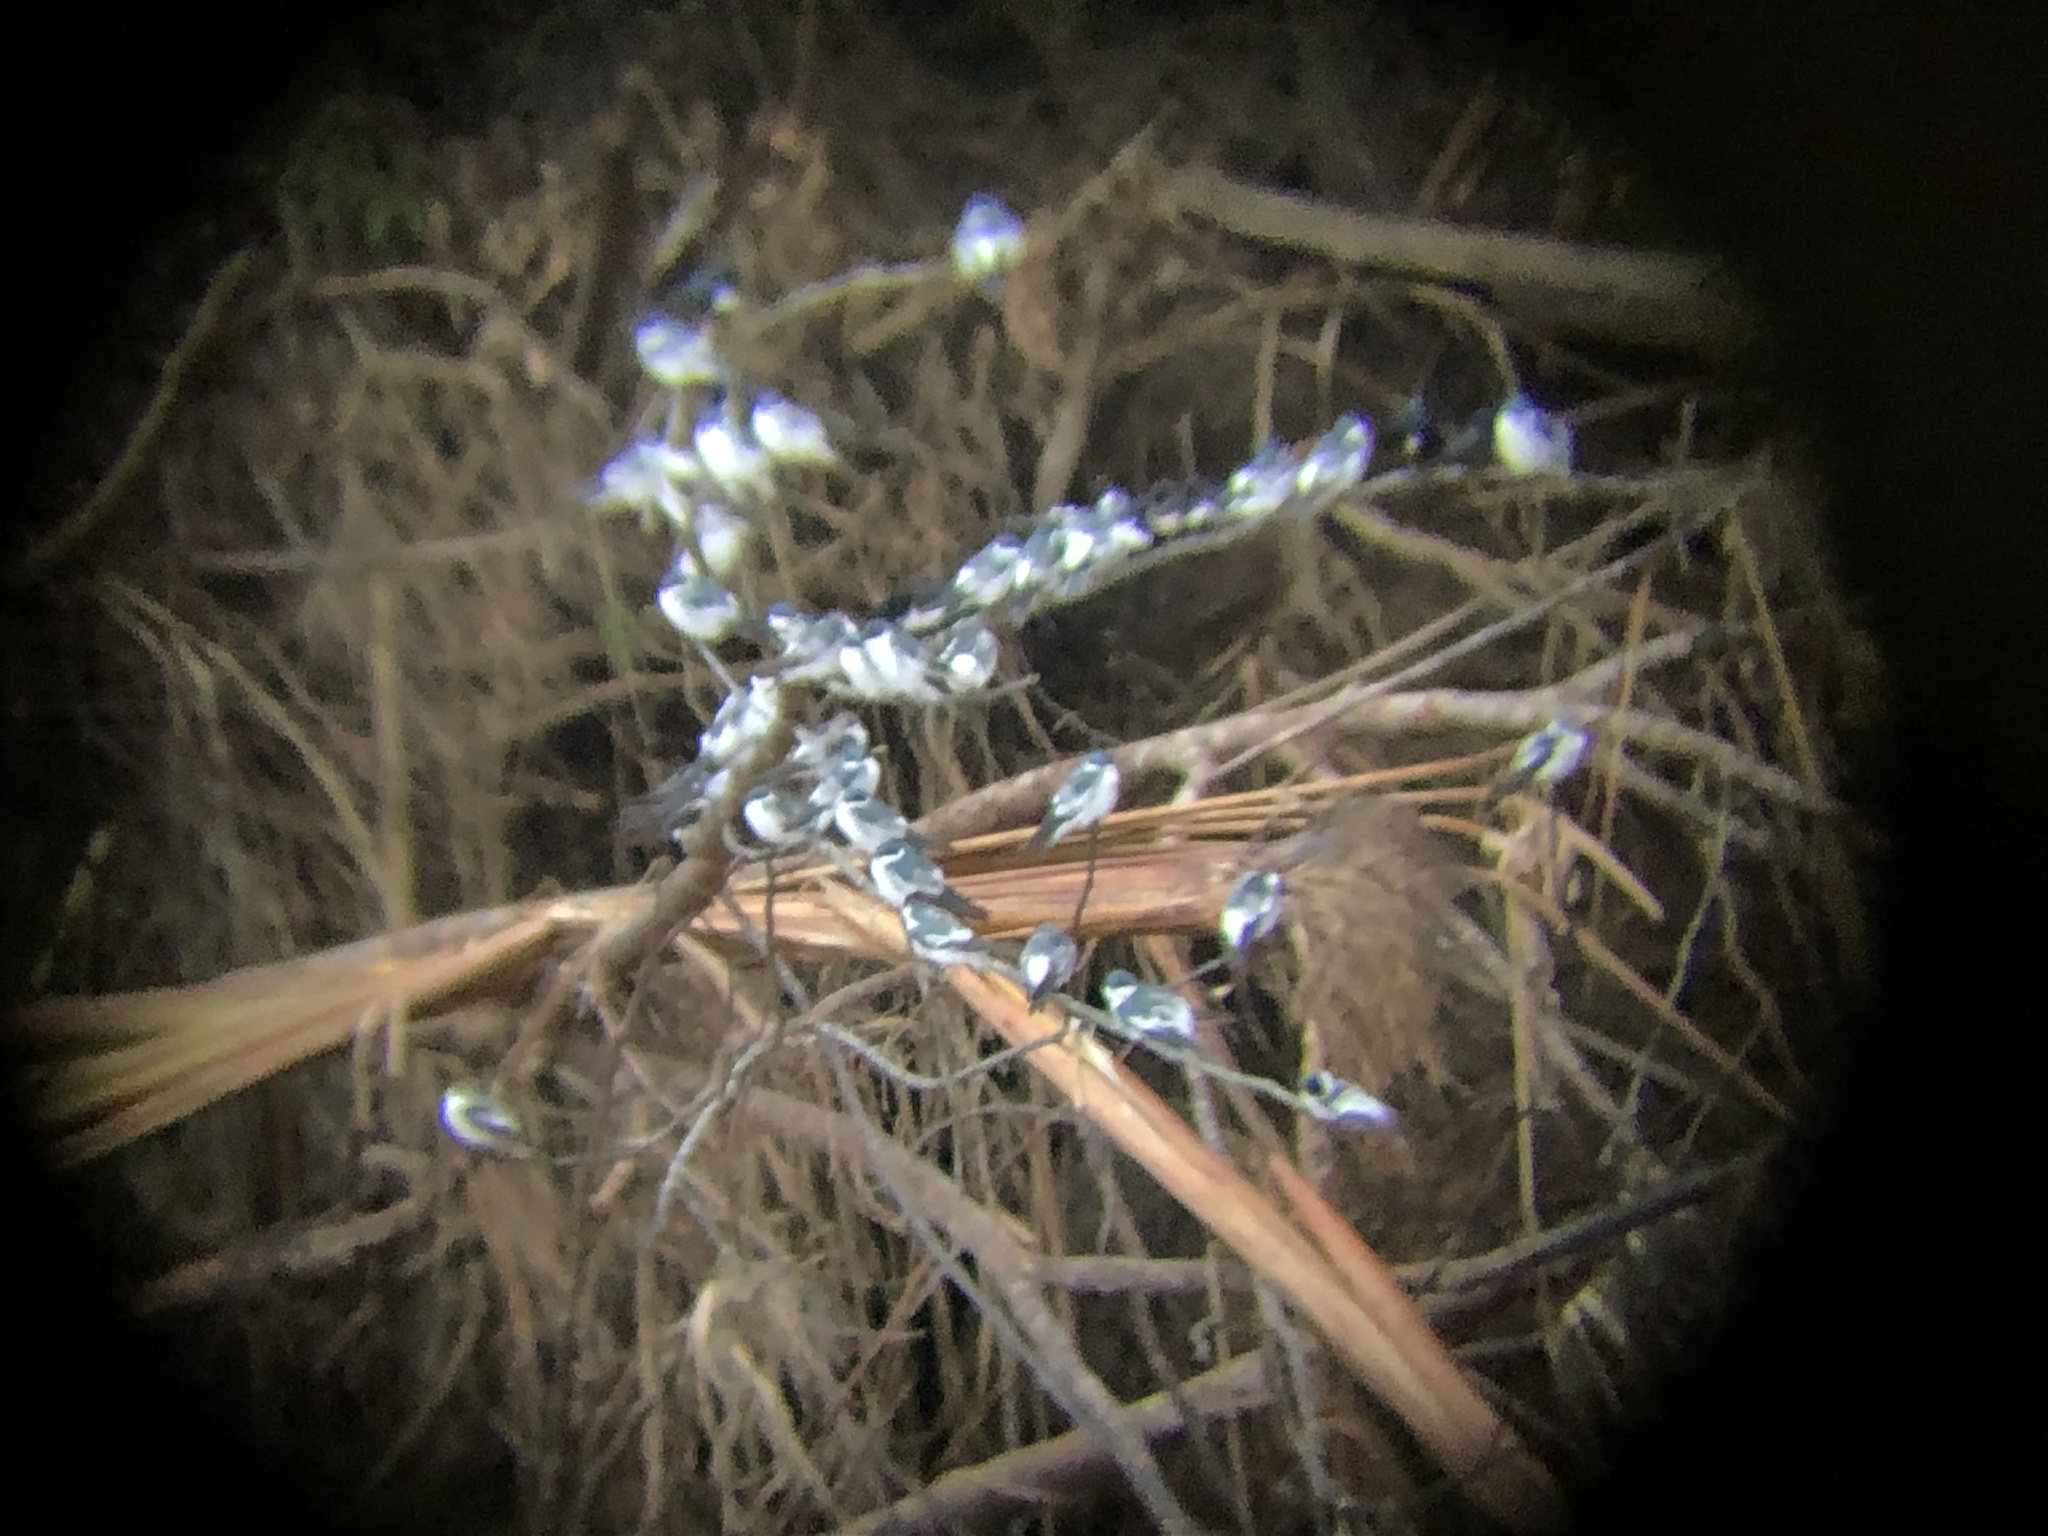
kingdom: Animalia
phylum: Chordata
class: Aves
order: Passeriformes
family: Hirundinidae
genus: Tachycineta
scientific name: Tachycineta albiventer
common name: White-winged swallow
